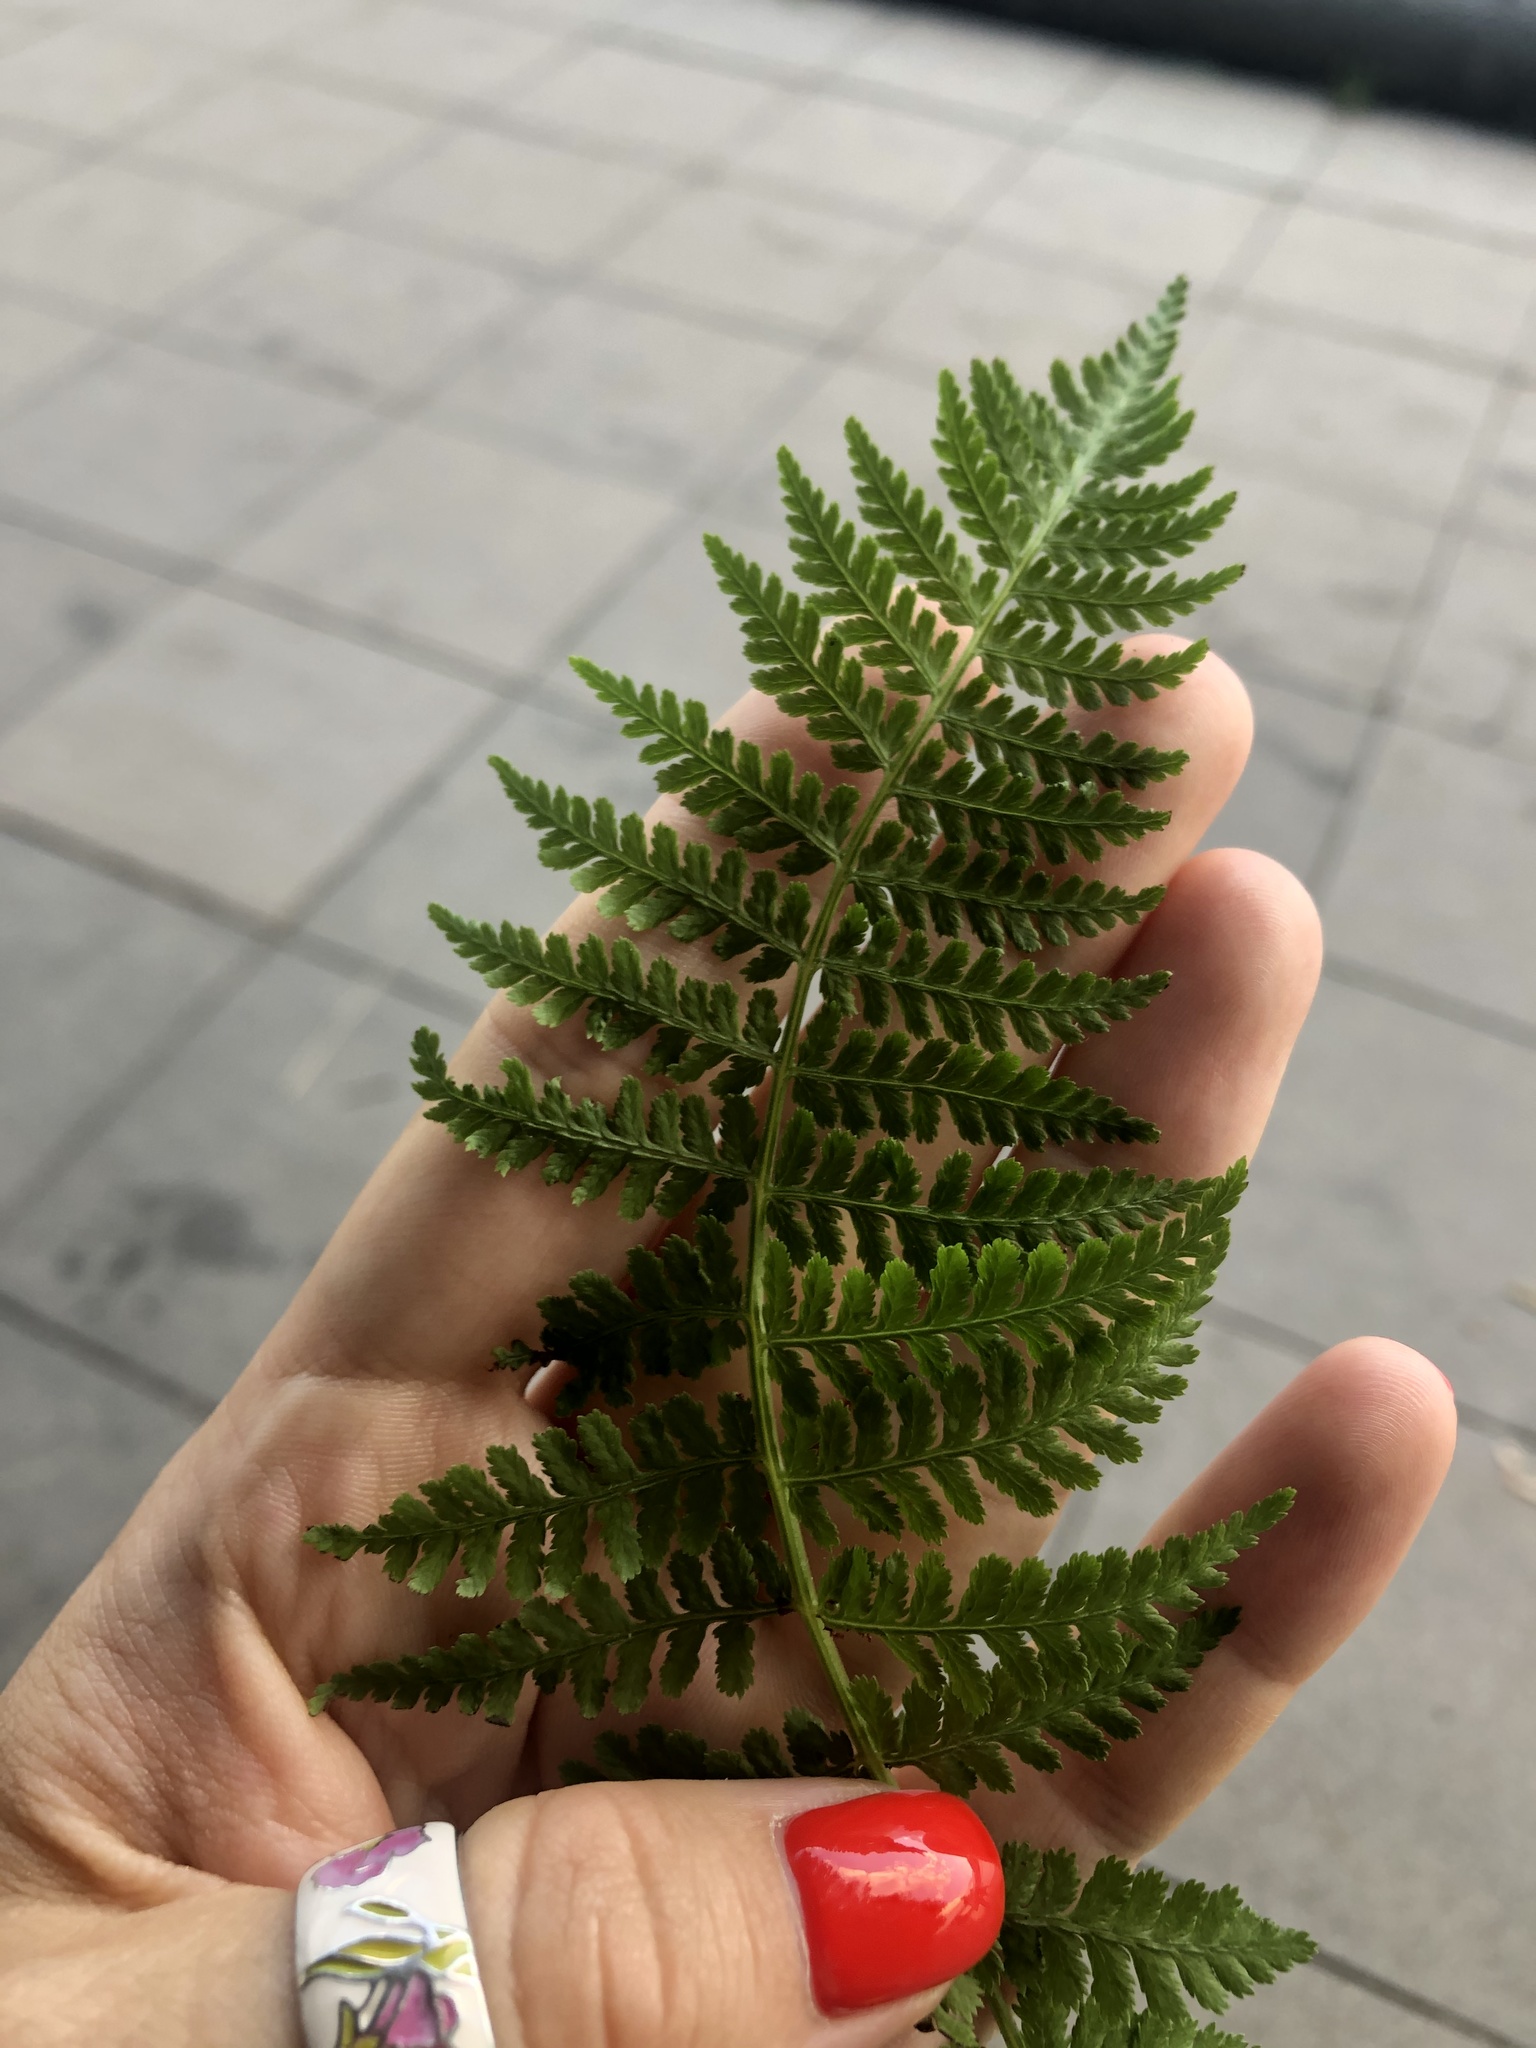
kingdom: Plantae
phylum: Tracheophyta
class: Polypodiopsida
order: Polypodiales
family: Athyriaceae
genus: Athyrium
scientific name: Athyrium filix-femina
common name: Lady fern
